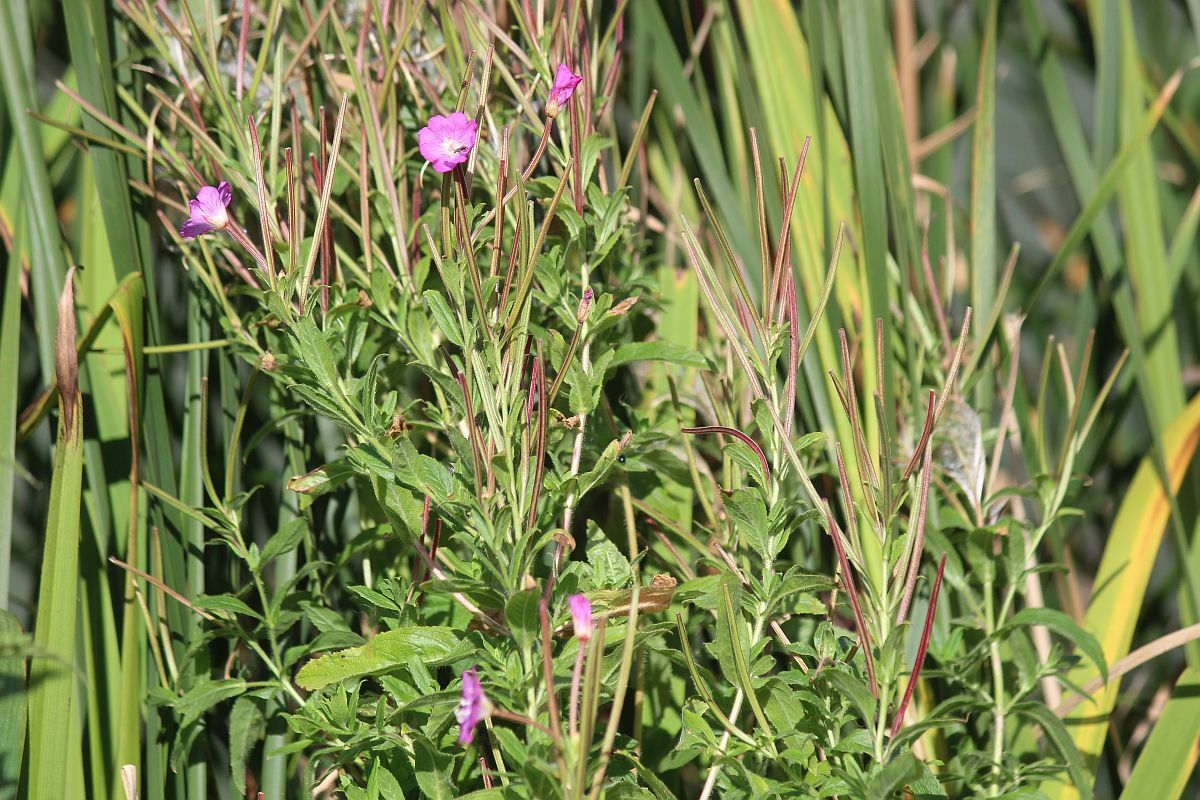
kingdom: Plantae
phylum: Tracheophyta
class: Magnoliopsida
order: Myrtales
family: Onagraceae
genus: Epilobium
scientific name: Epilobium hirsutum
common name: Great willowherb
